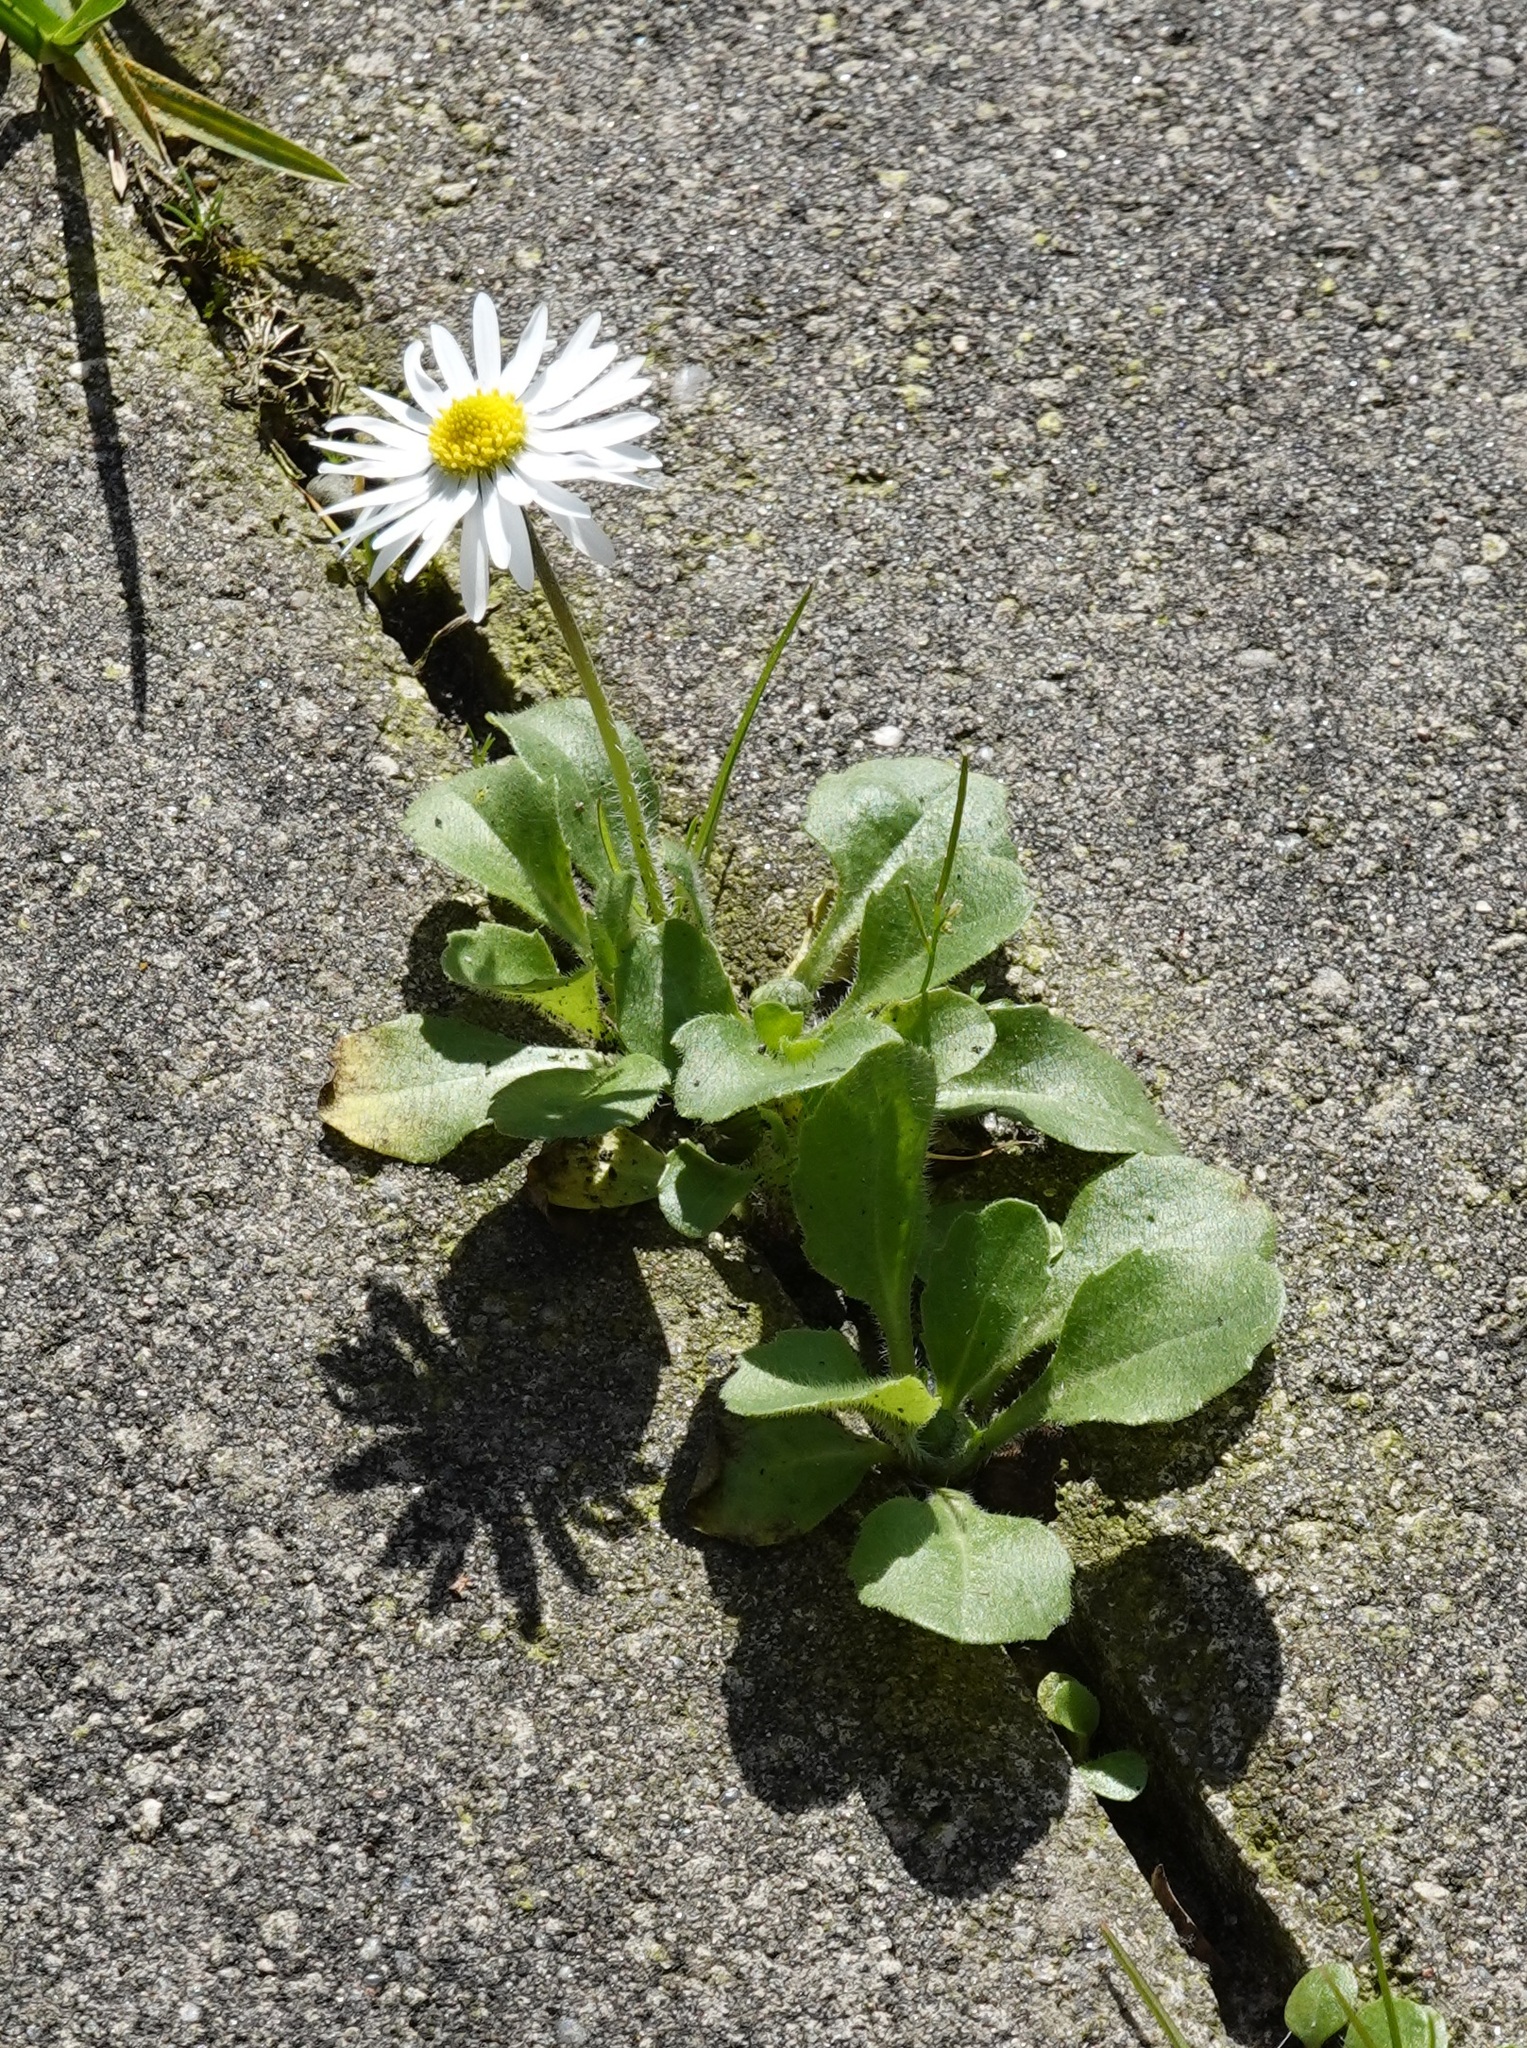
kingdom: Plantae
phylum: Tracheophyta
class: Magnoliopsida
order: Asterales
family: Asteraceae
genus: Bellis
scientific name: Bellis perennis
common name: Lawndaisy
